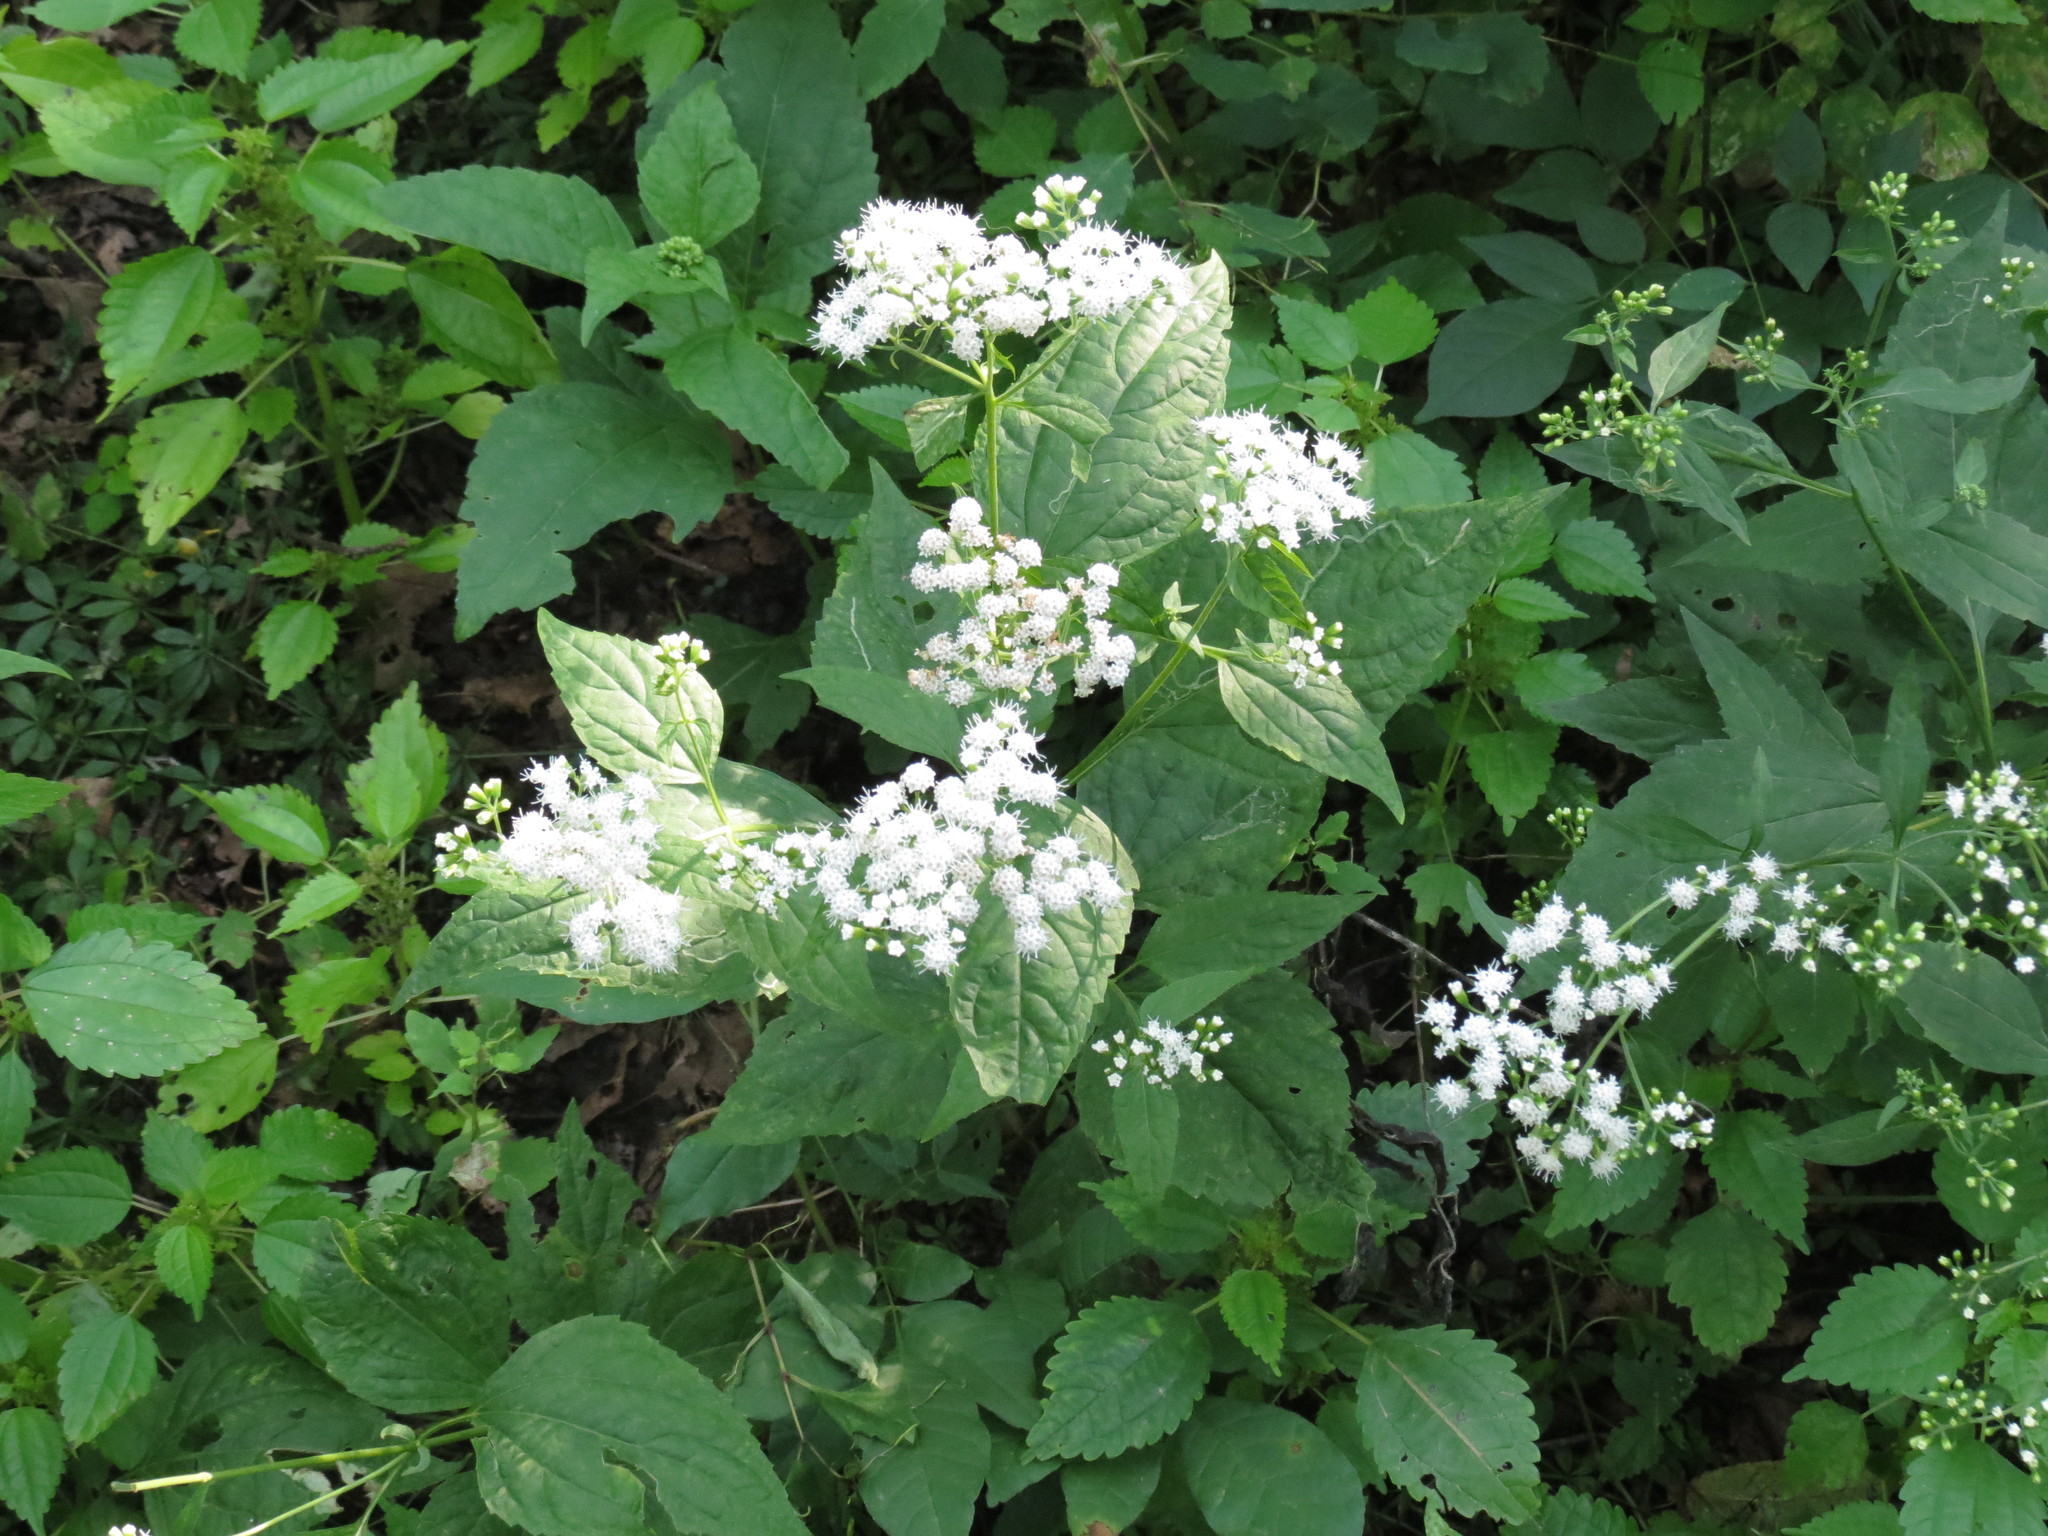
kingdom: Plantae
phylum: Tracheophyta
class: Magnoliopsida
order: Asterales
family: Asteraceae
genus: Ageratina
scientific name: Ageratina altissima
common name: White snakeroot
